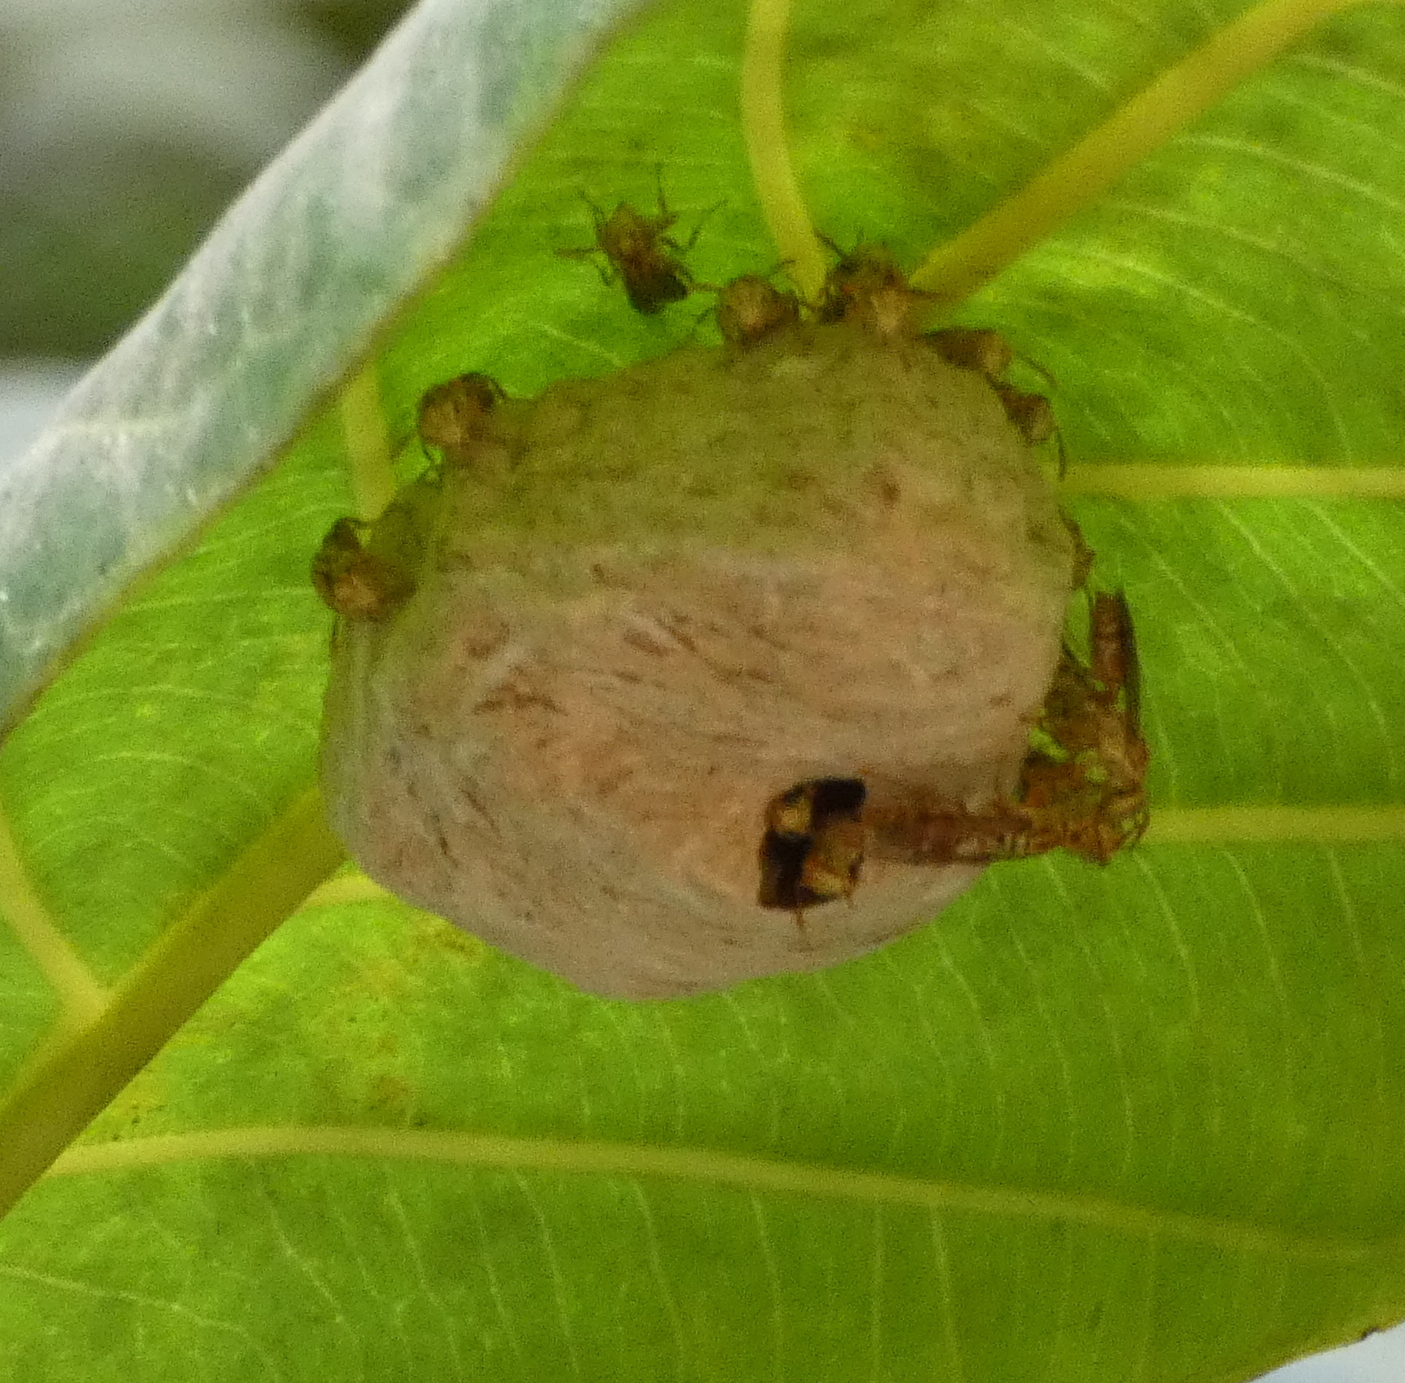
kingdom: Animalia
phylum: Arthropoda
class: Insecta
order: Hymenoptera
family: Vespidae
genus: Protopolybia
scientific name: Protopolybia potiguara
